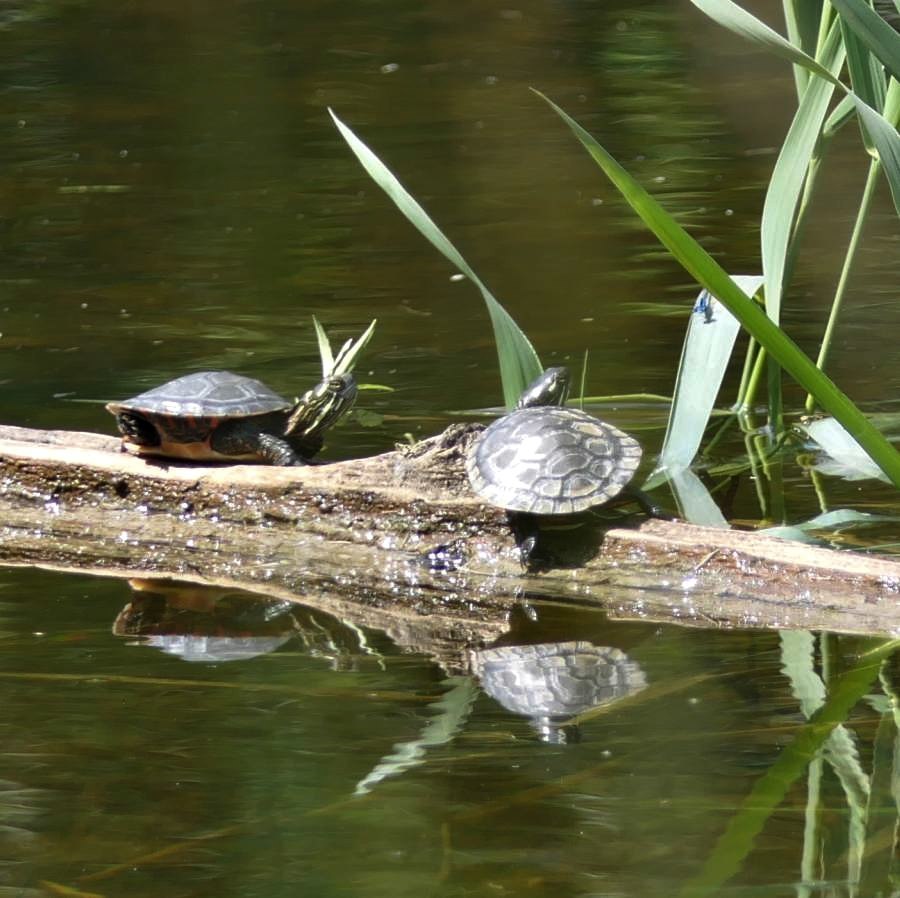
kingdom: Animalia
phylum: Chordata
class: Testudines
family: Emydidae
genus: Chrysemys
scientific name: Chrysemys picta
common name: Painted turtle
